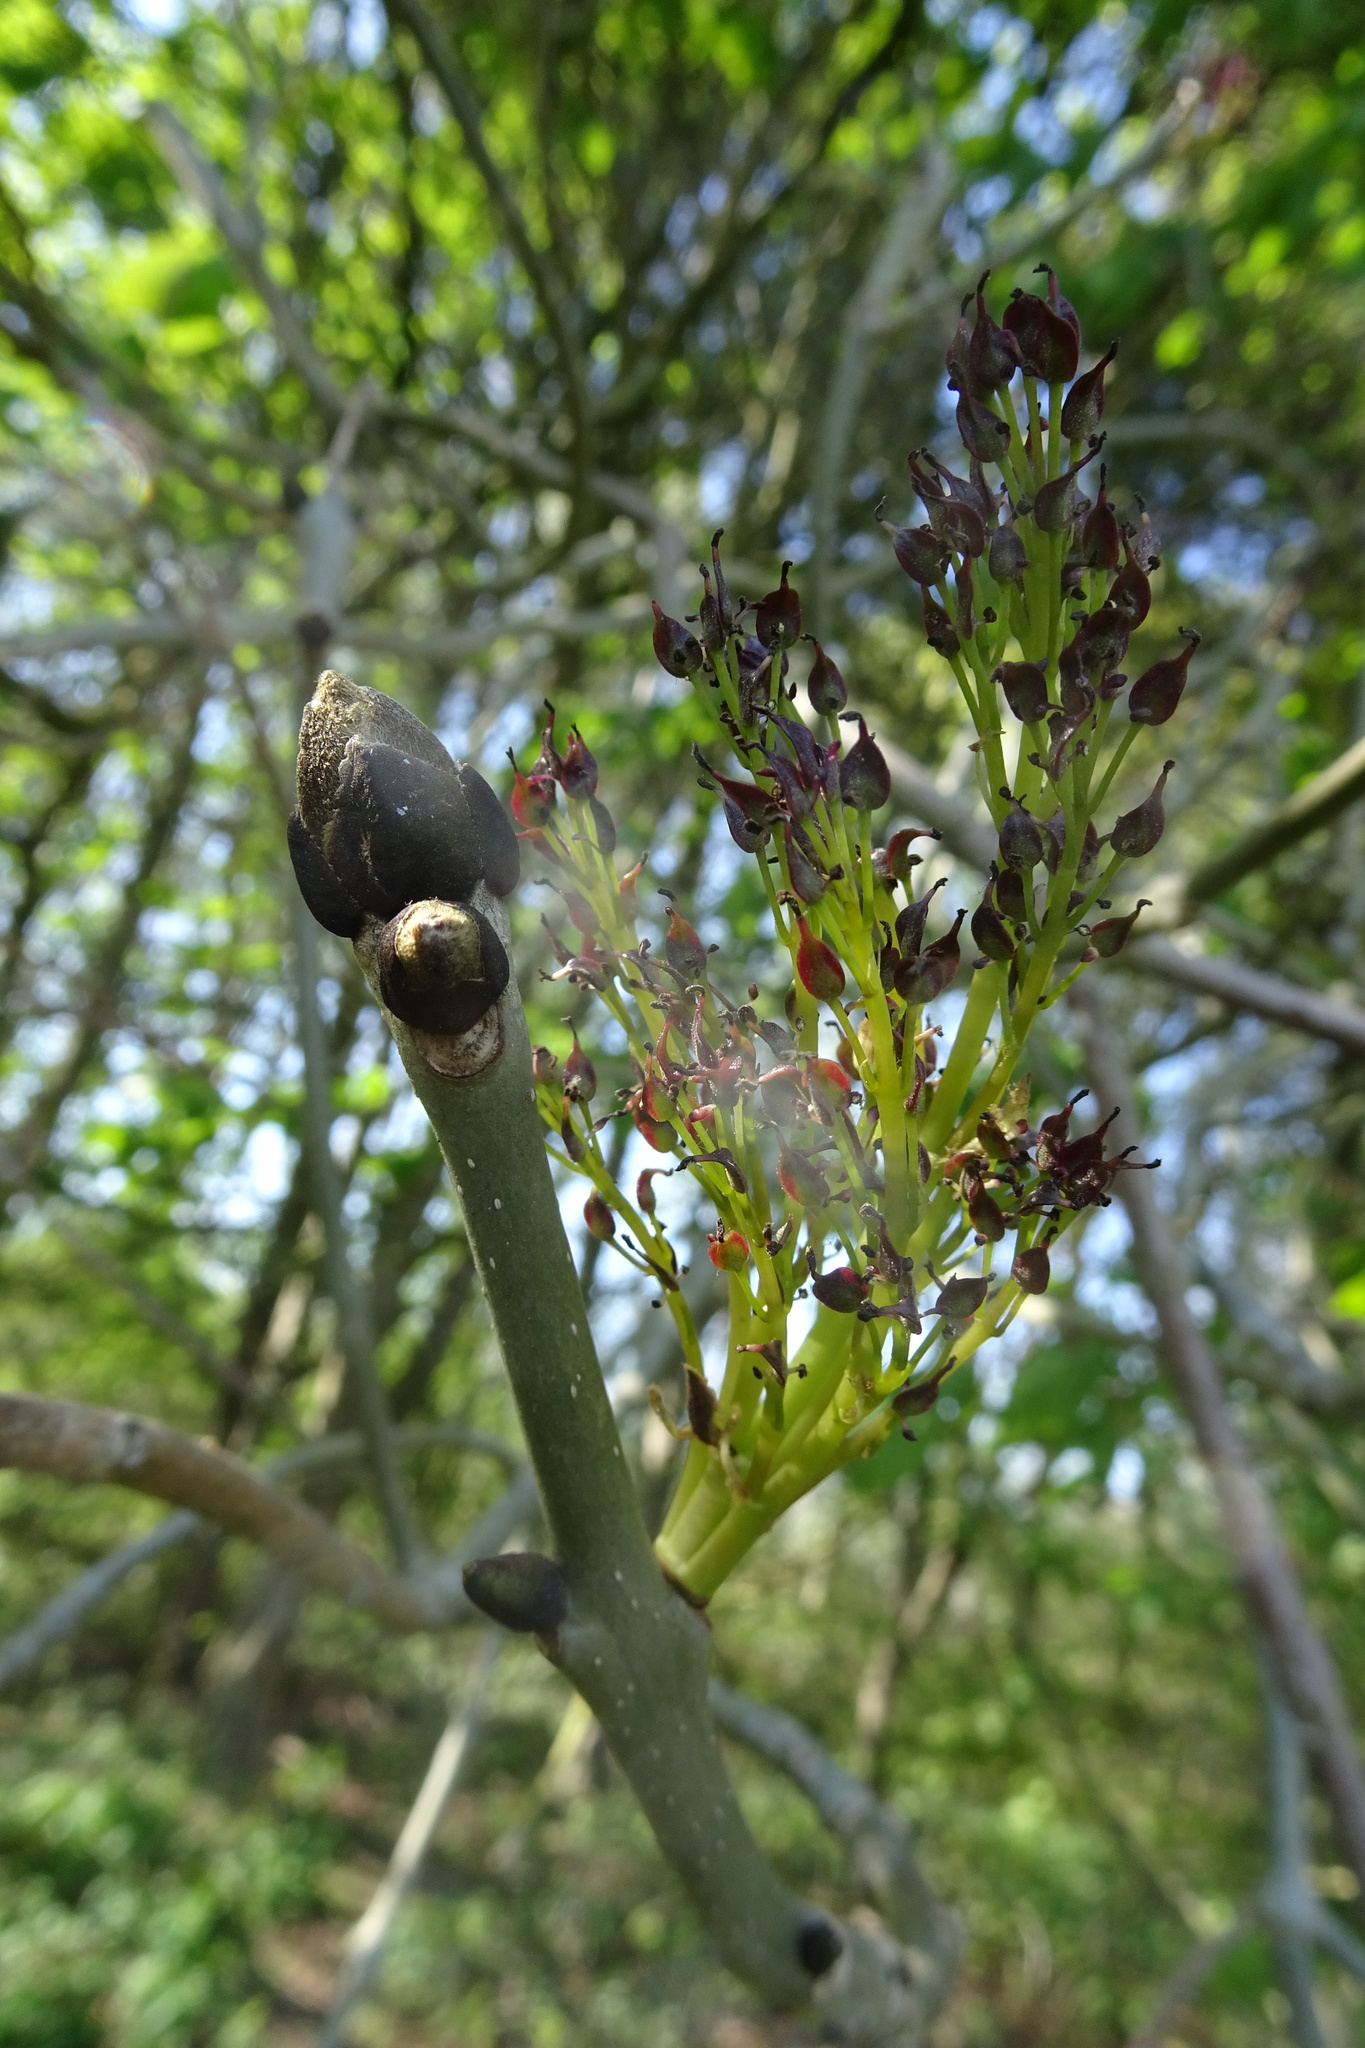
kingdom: Plantae
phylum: Tracheophyta
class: Magnoliopsida
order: Lamiales
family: Oleaceae
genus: Fraxinus
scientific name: Fraxinus excelsior
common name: European ash
